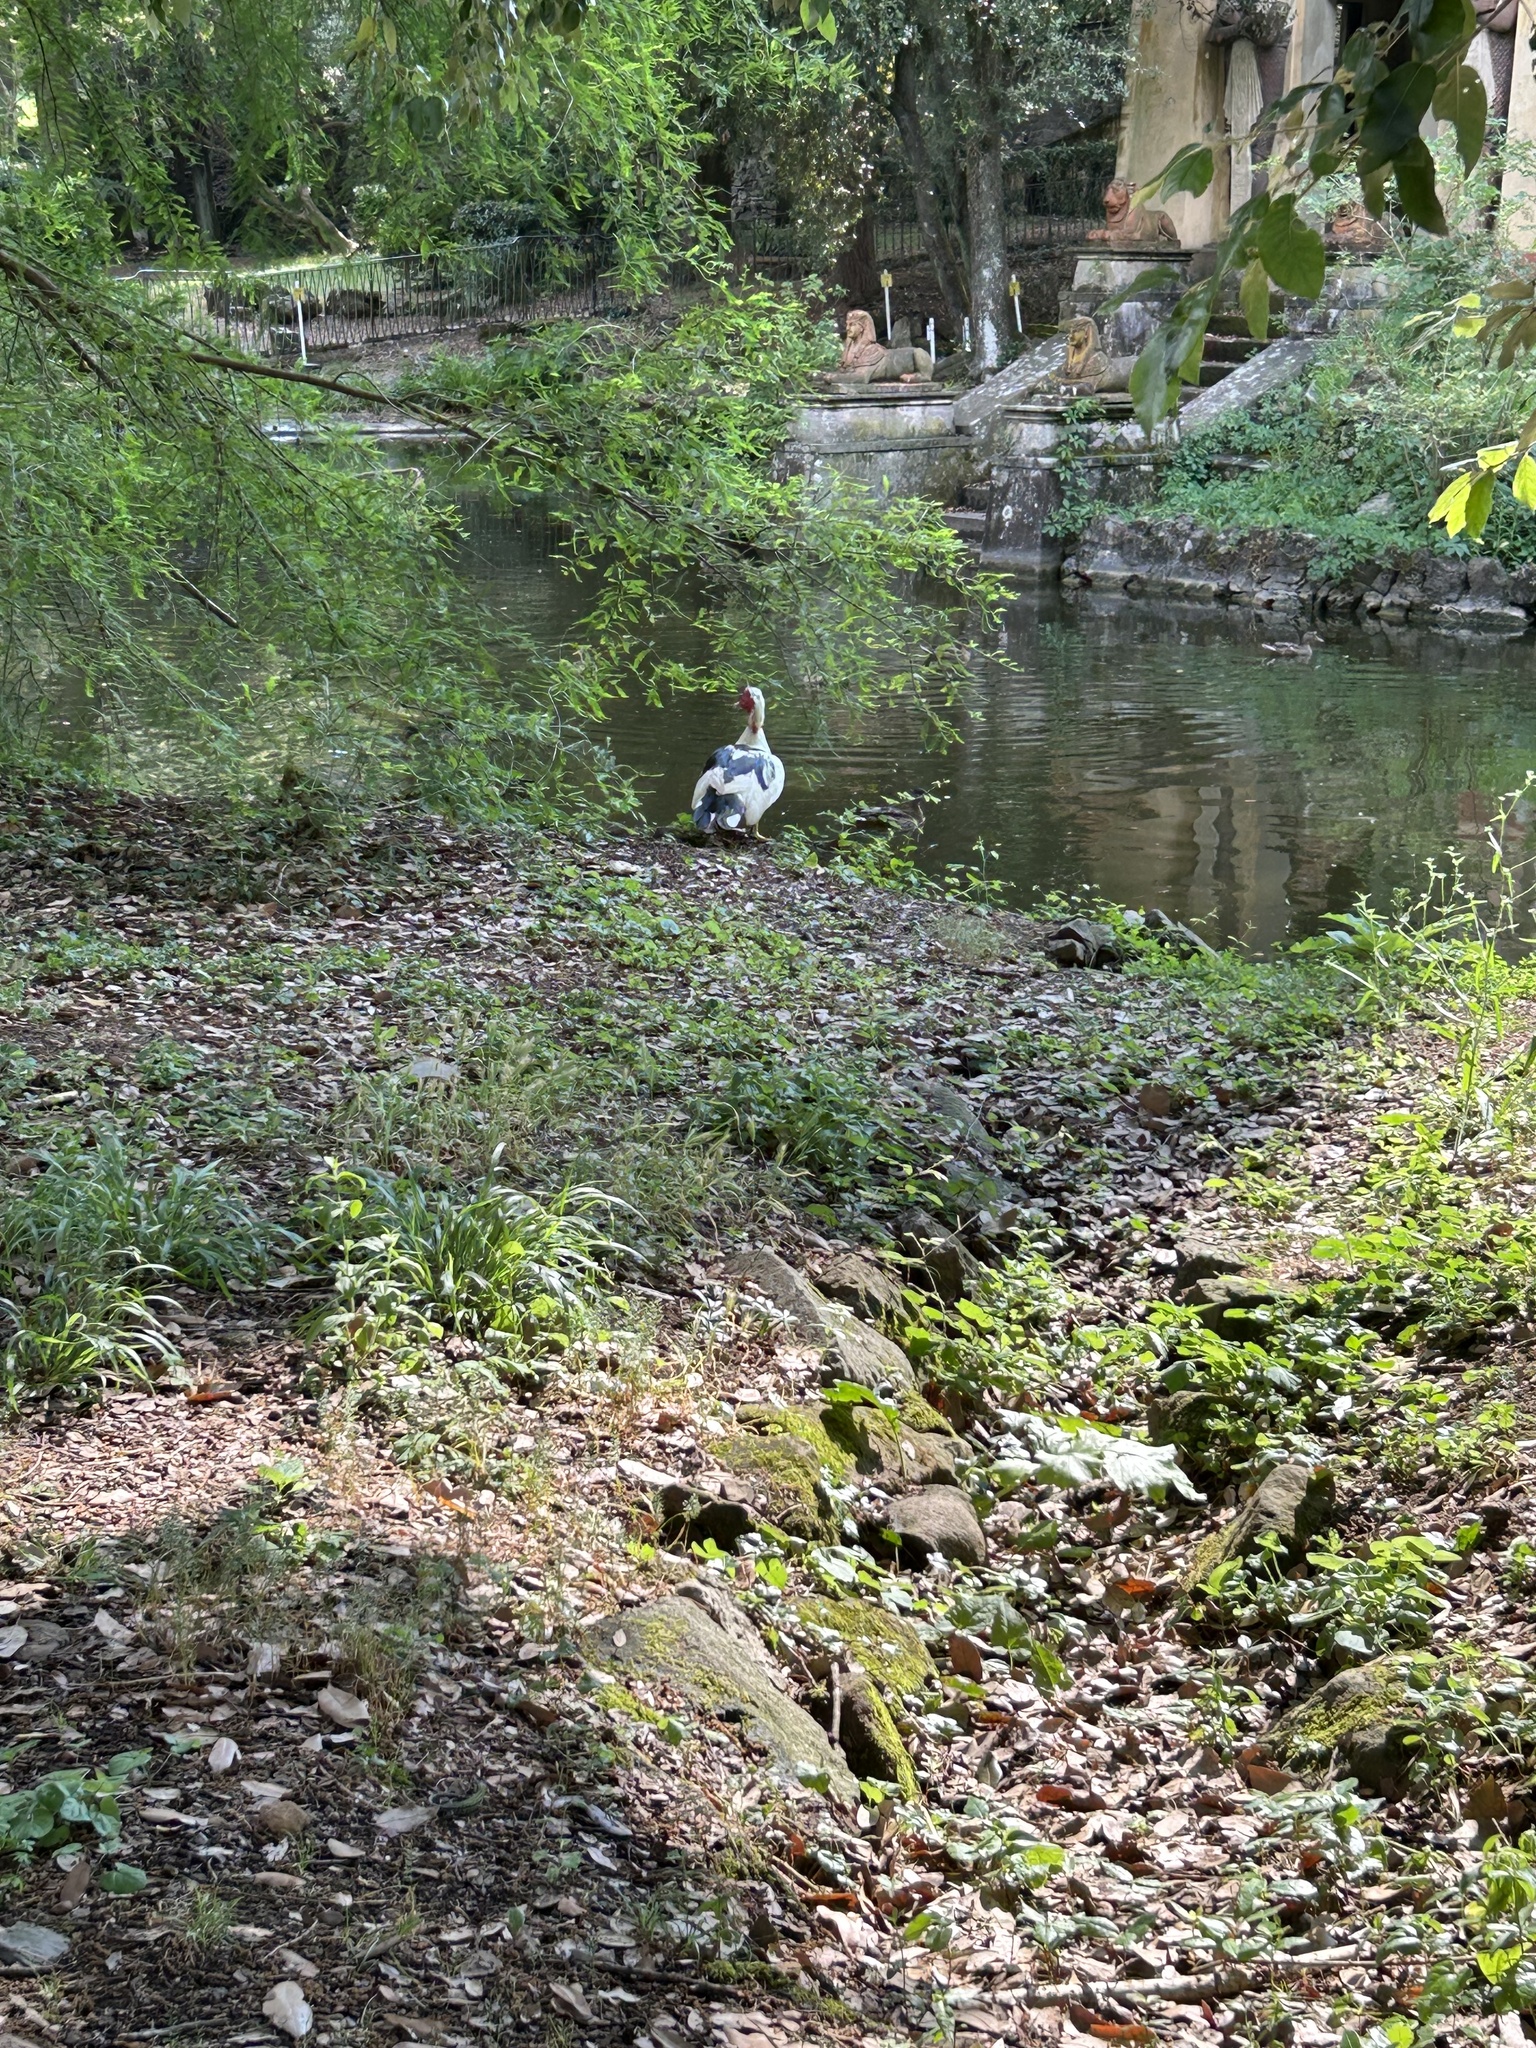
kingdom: Animalia
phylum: Chordata
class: Aves
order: Anseriformes
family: Anatidae
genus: Cairina
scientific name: Cairina moschata
